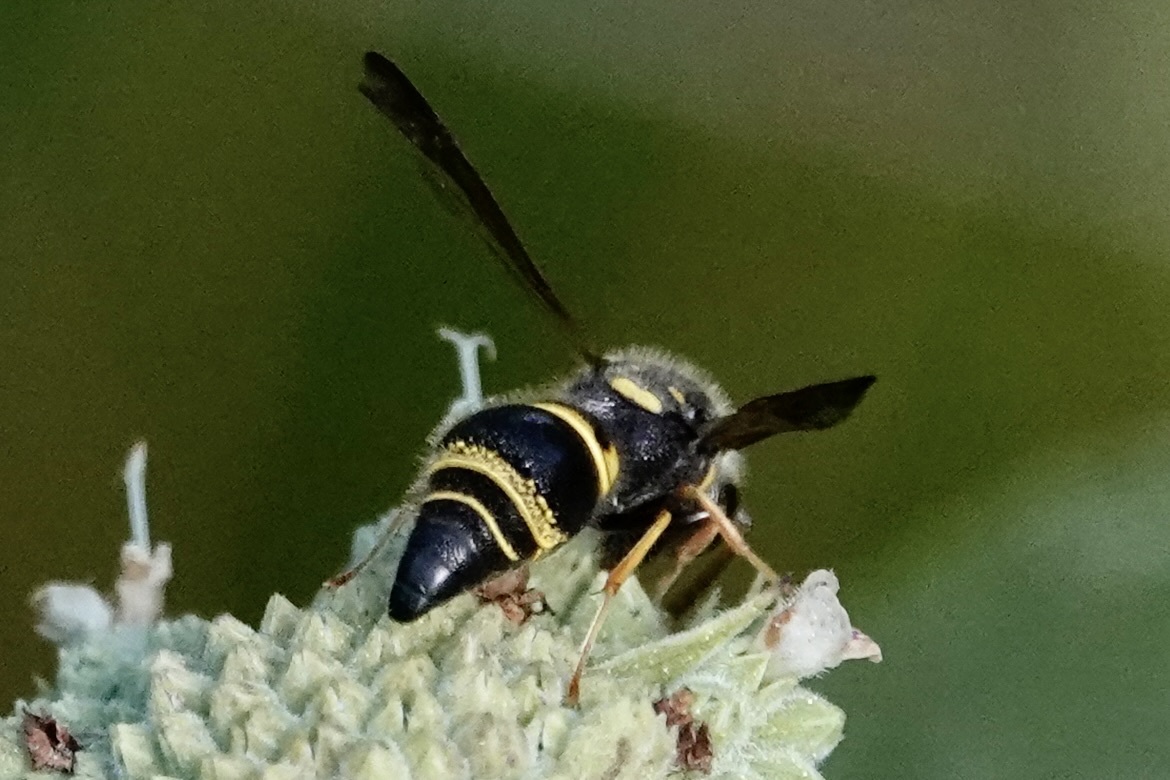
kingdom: Animalia
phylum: Arthropoda
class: Insecta
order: Hymenoptera
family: Vespidae
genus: Ancistrocerus
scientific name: Ancistrocerus campestris
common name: Smiling mason wasp
